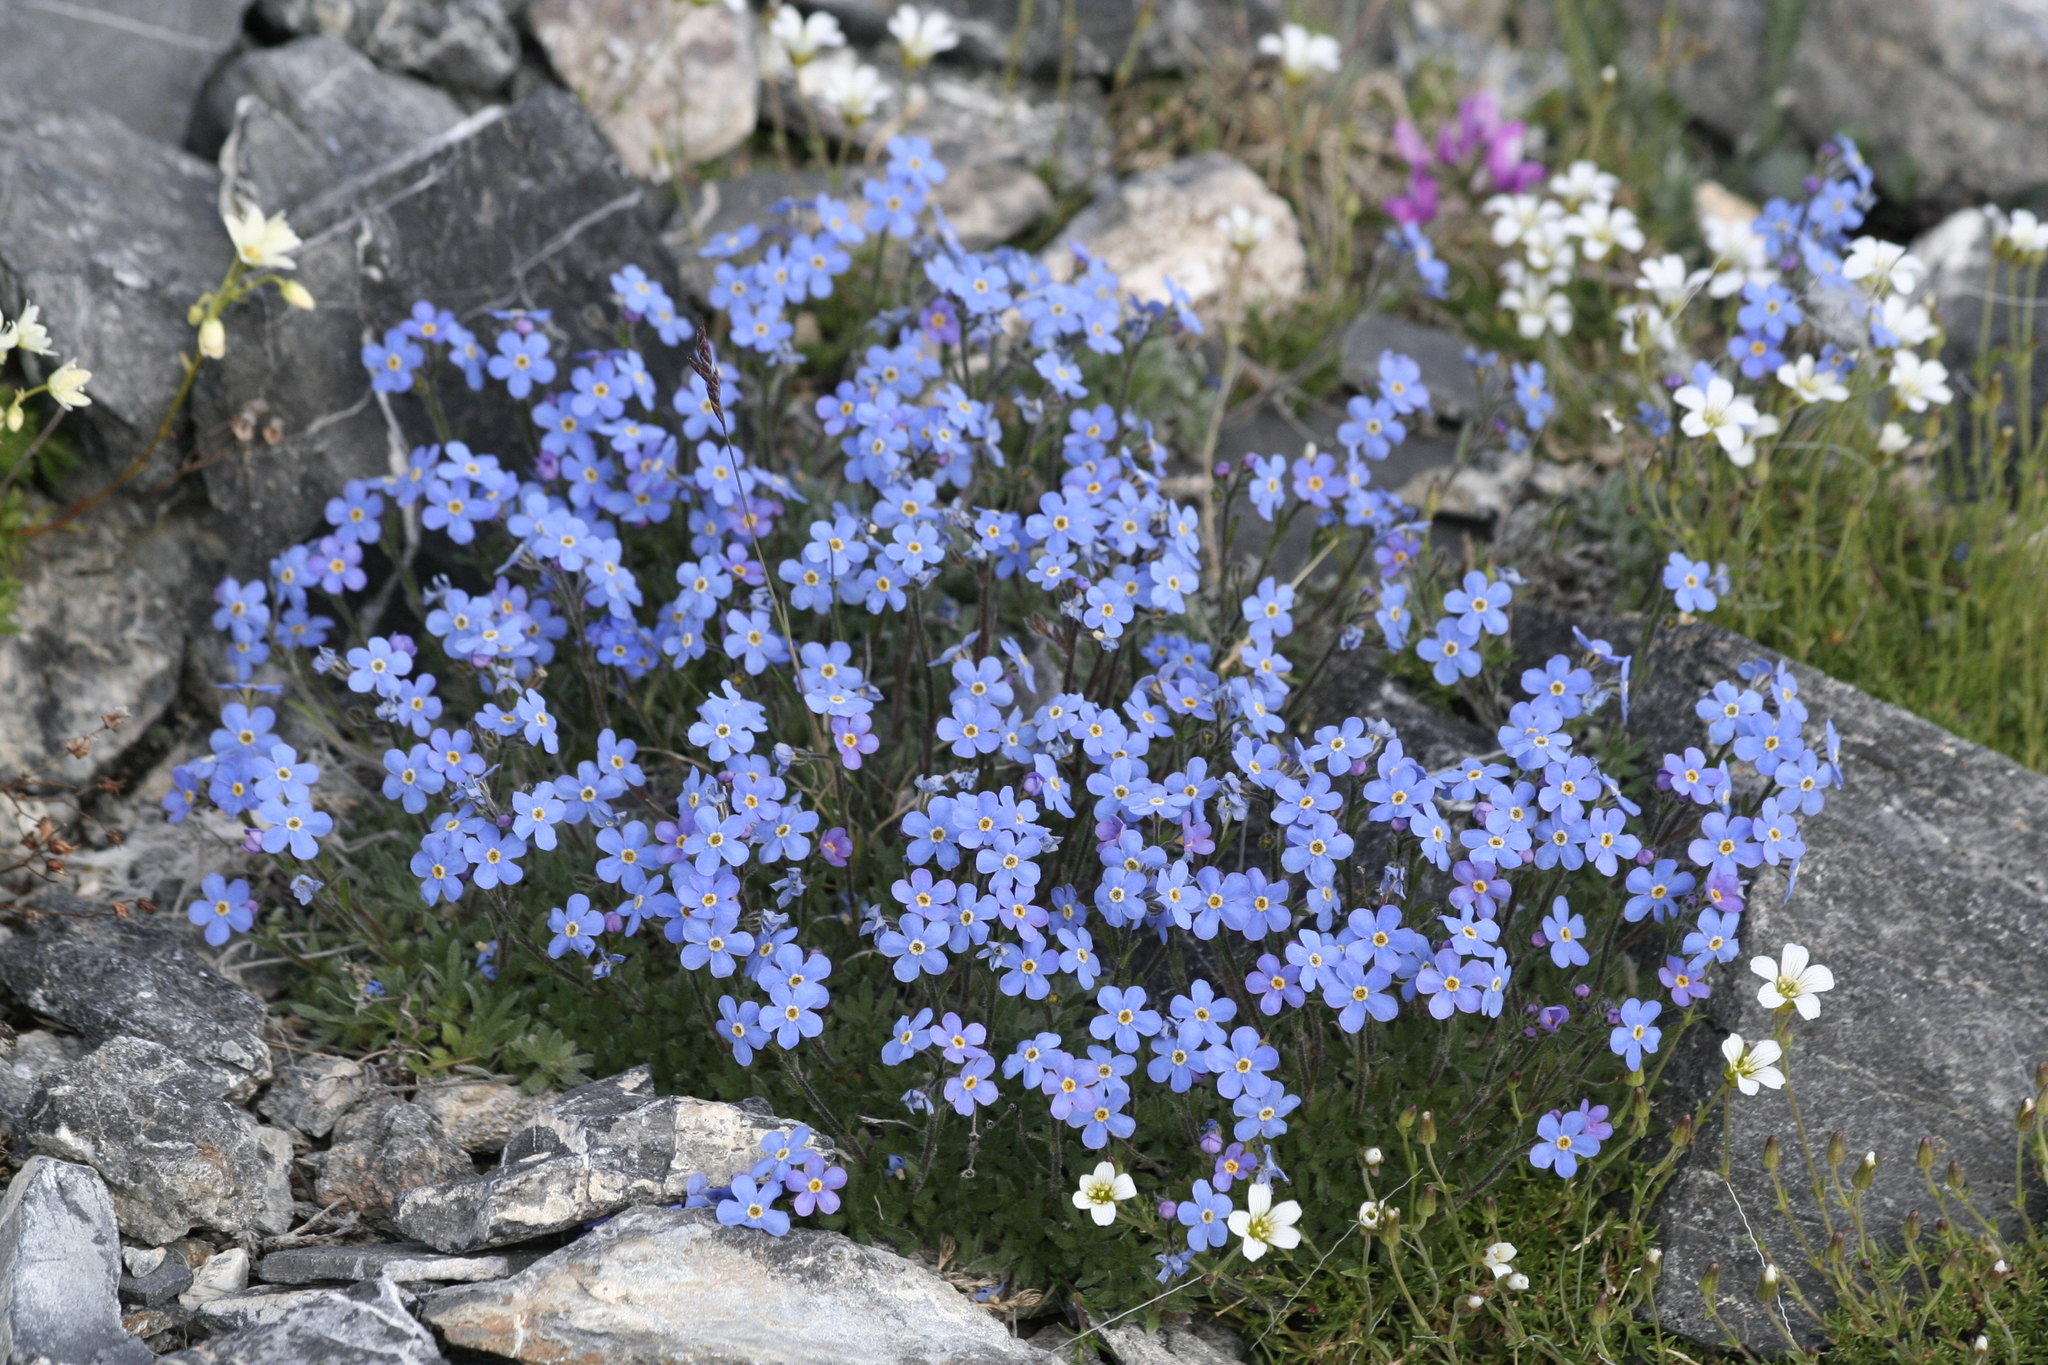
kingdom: Plantae
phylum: Tracheophyta
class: Magnoliopsida
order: Caryophyllales
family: Caryophyllaceae
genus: Cherleria
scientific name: Cherleria arctica
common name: Arctic sandwort
